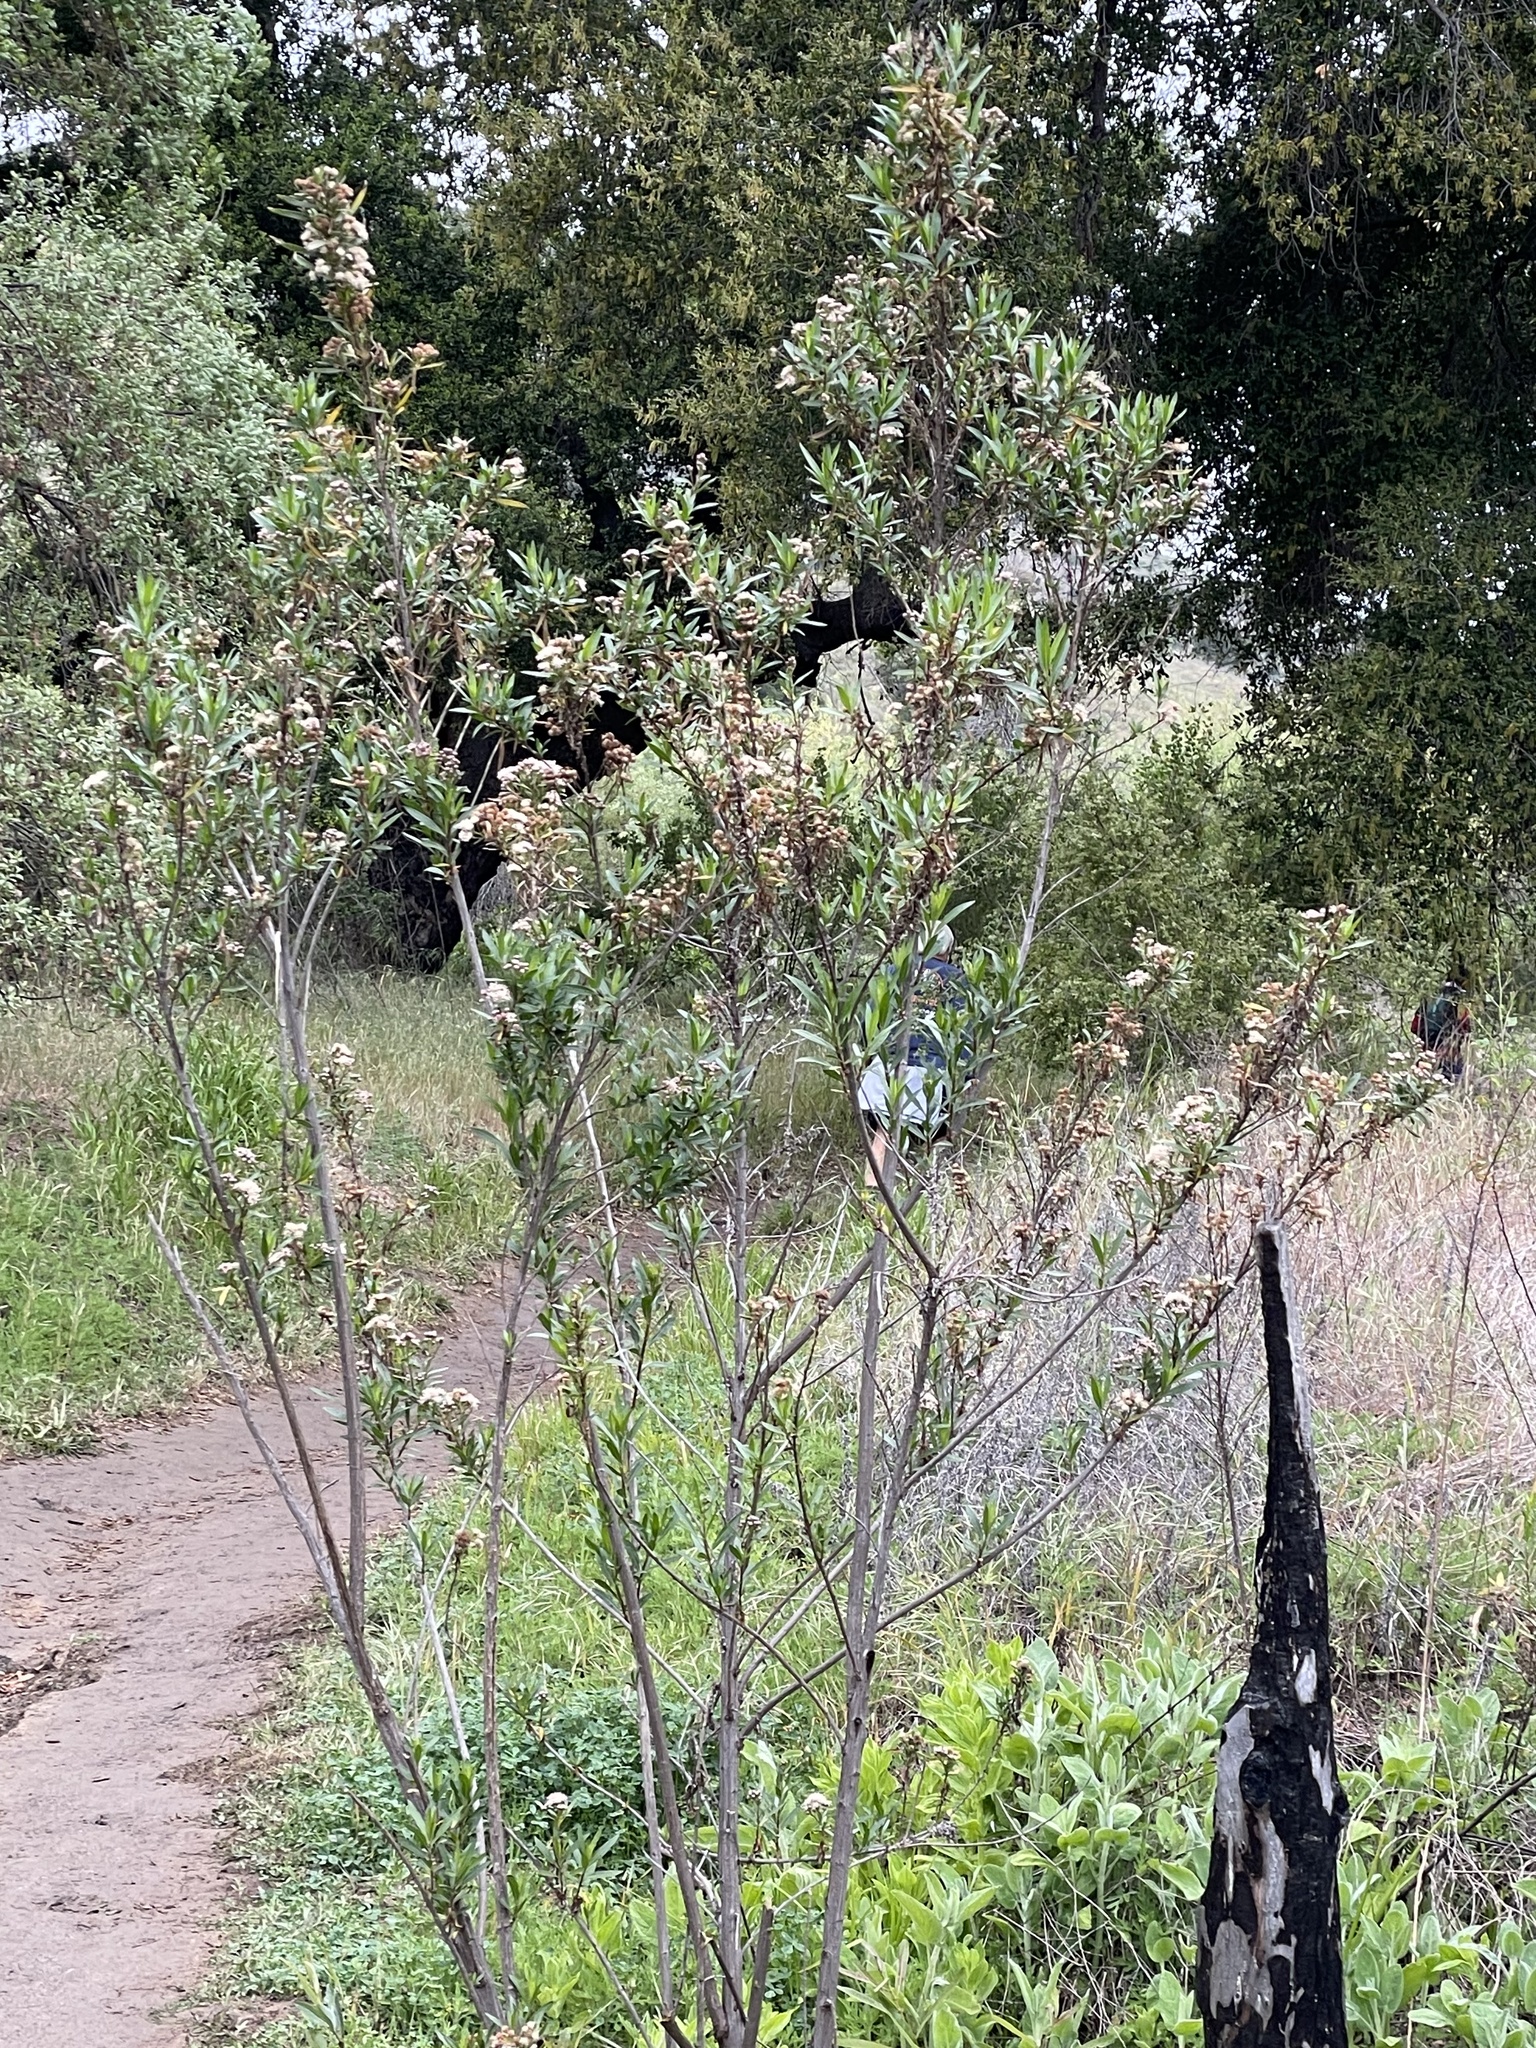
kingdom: Plantae
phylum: Tracheophyta
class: Magnoliopsida
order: Asterales
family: Asteraceae
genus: Baccharis
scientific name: Baccharis salicifolia
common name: Sticky baccharis
